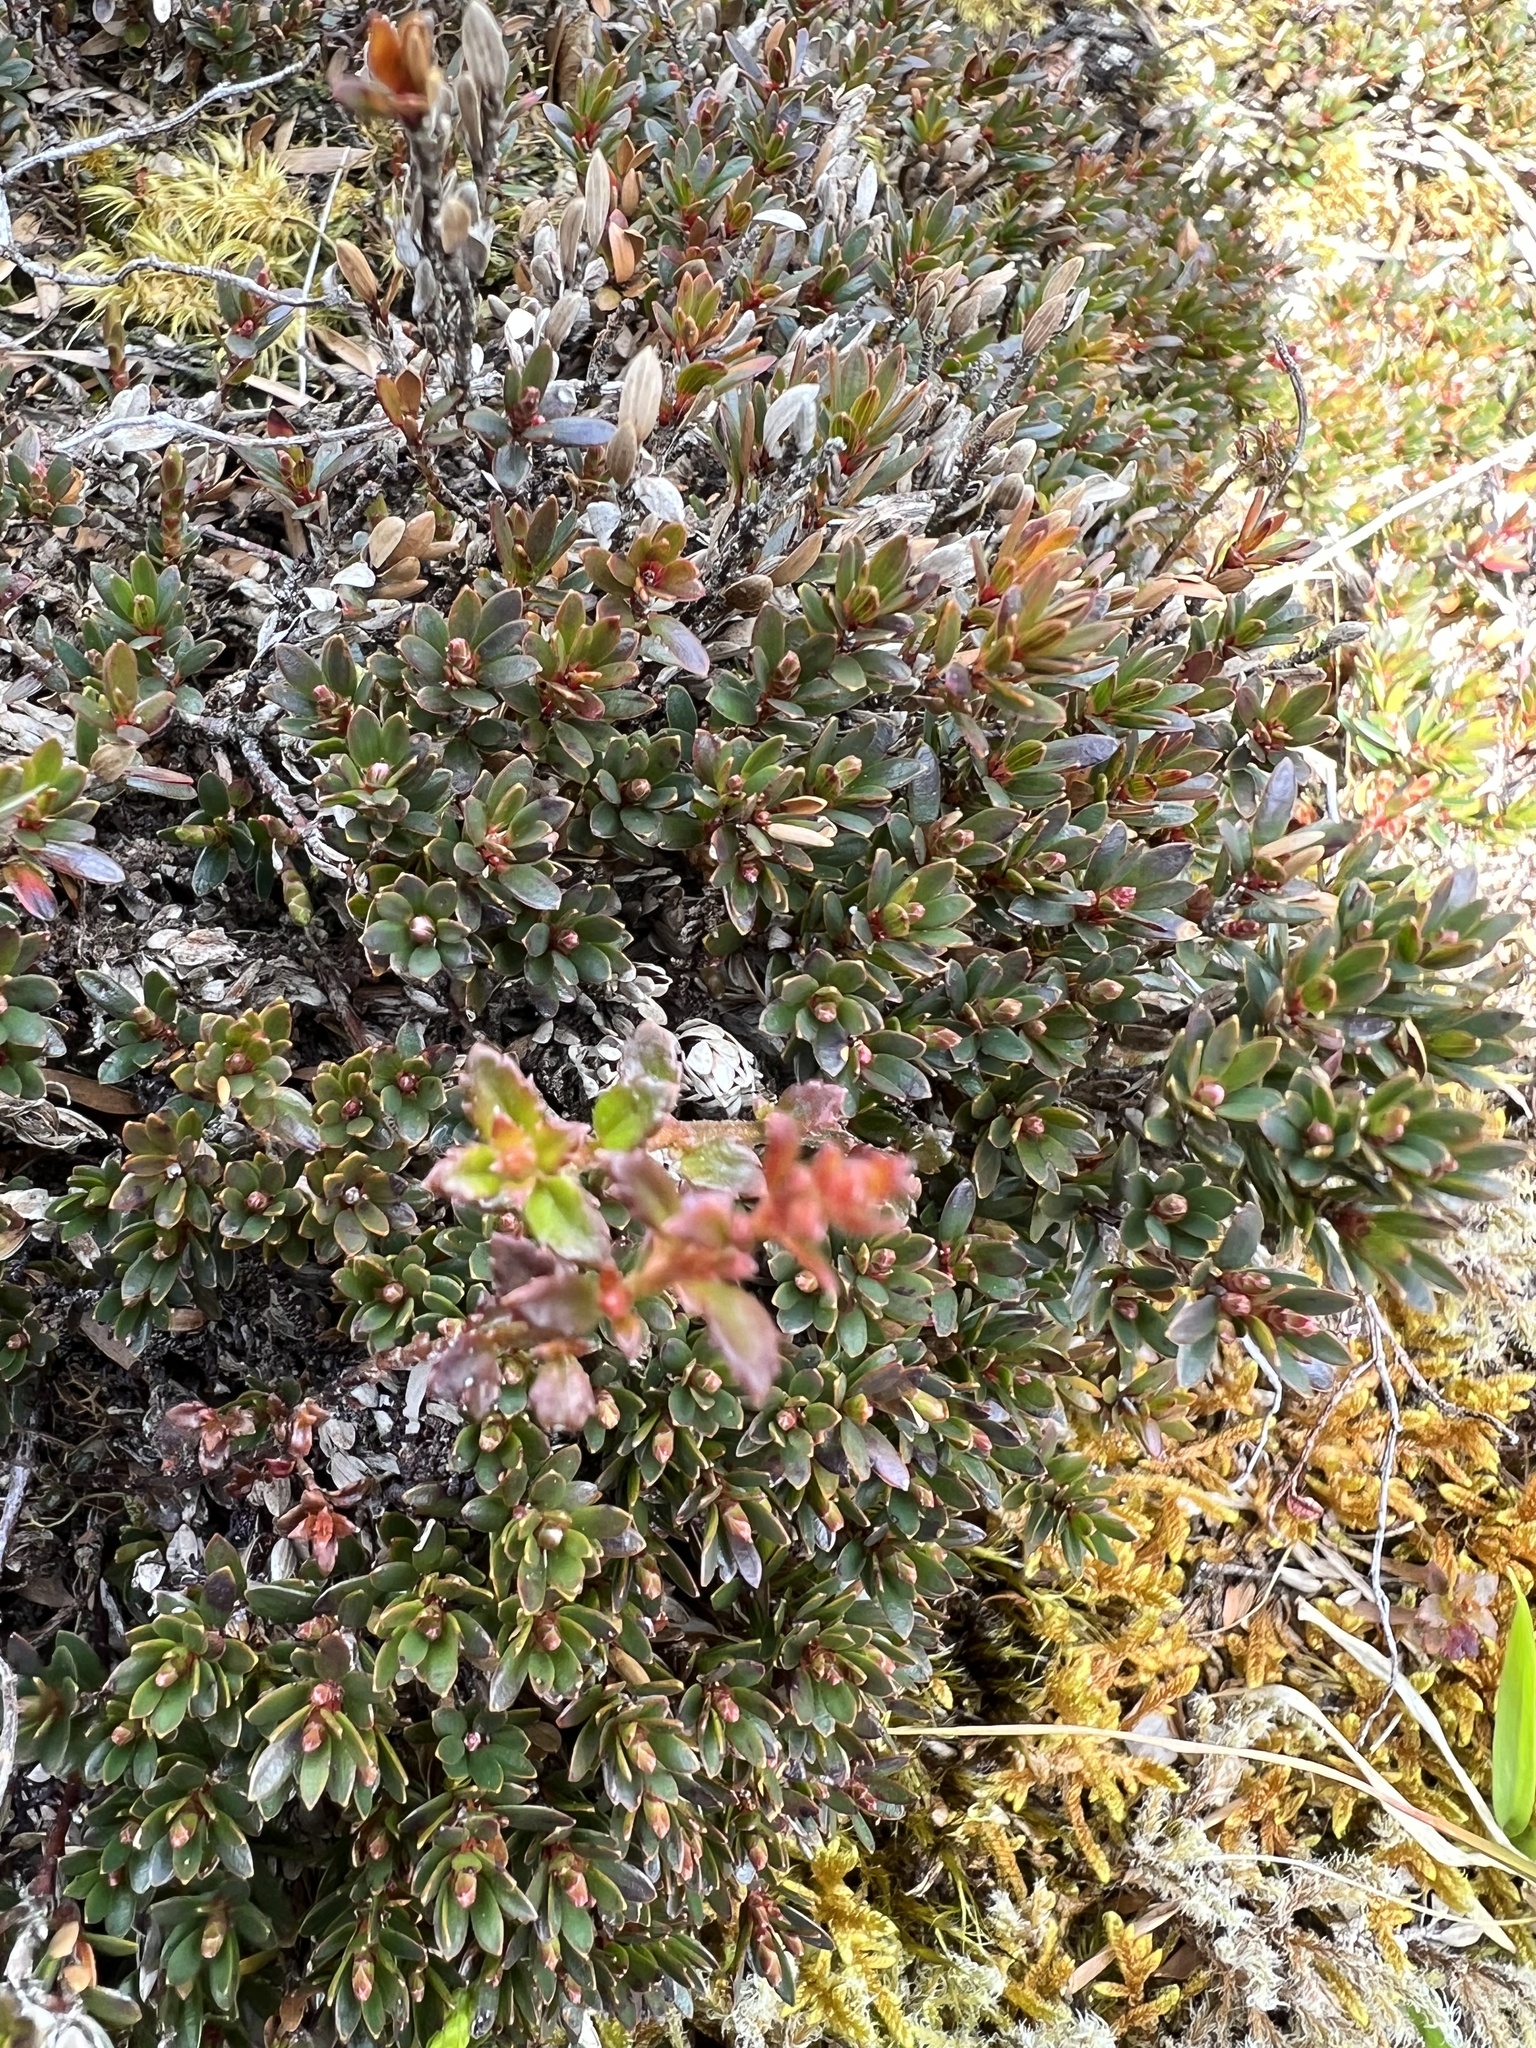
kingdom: Plantae
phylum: Tracheophyta
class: Magnoliopsida
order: Ericales
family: Ericaceae
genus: Pentachondra
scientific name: Pentachondra pumila
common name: Carpet-heath
